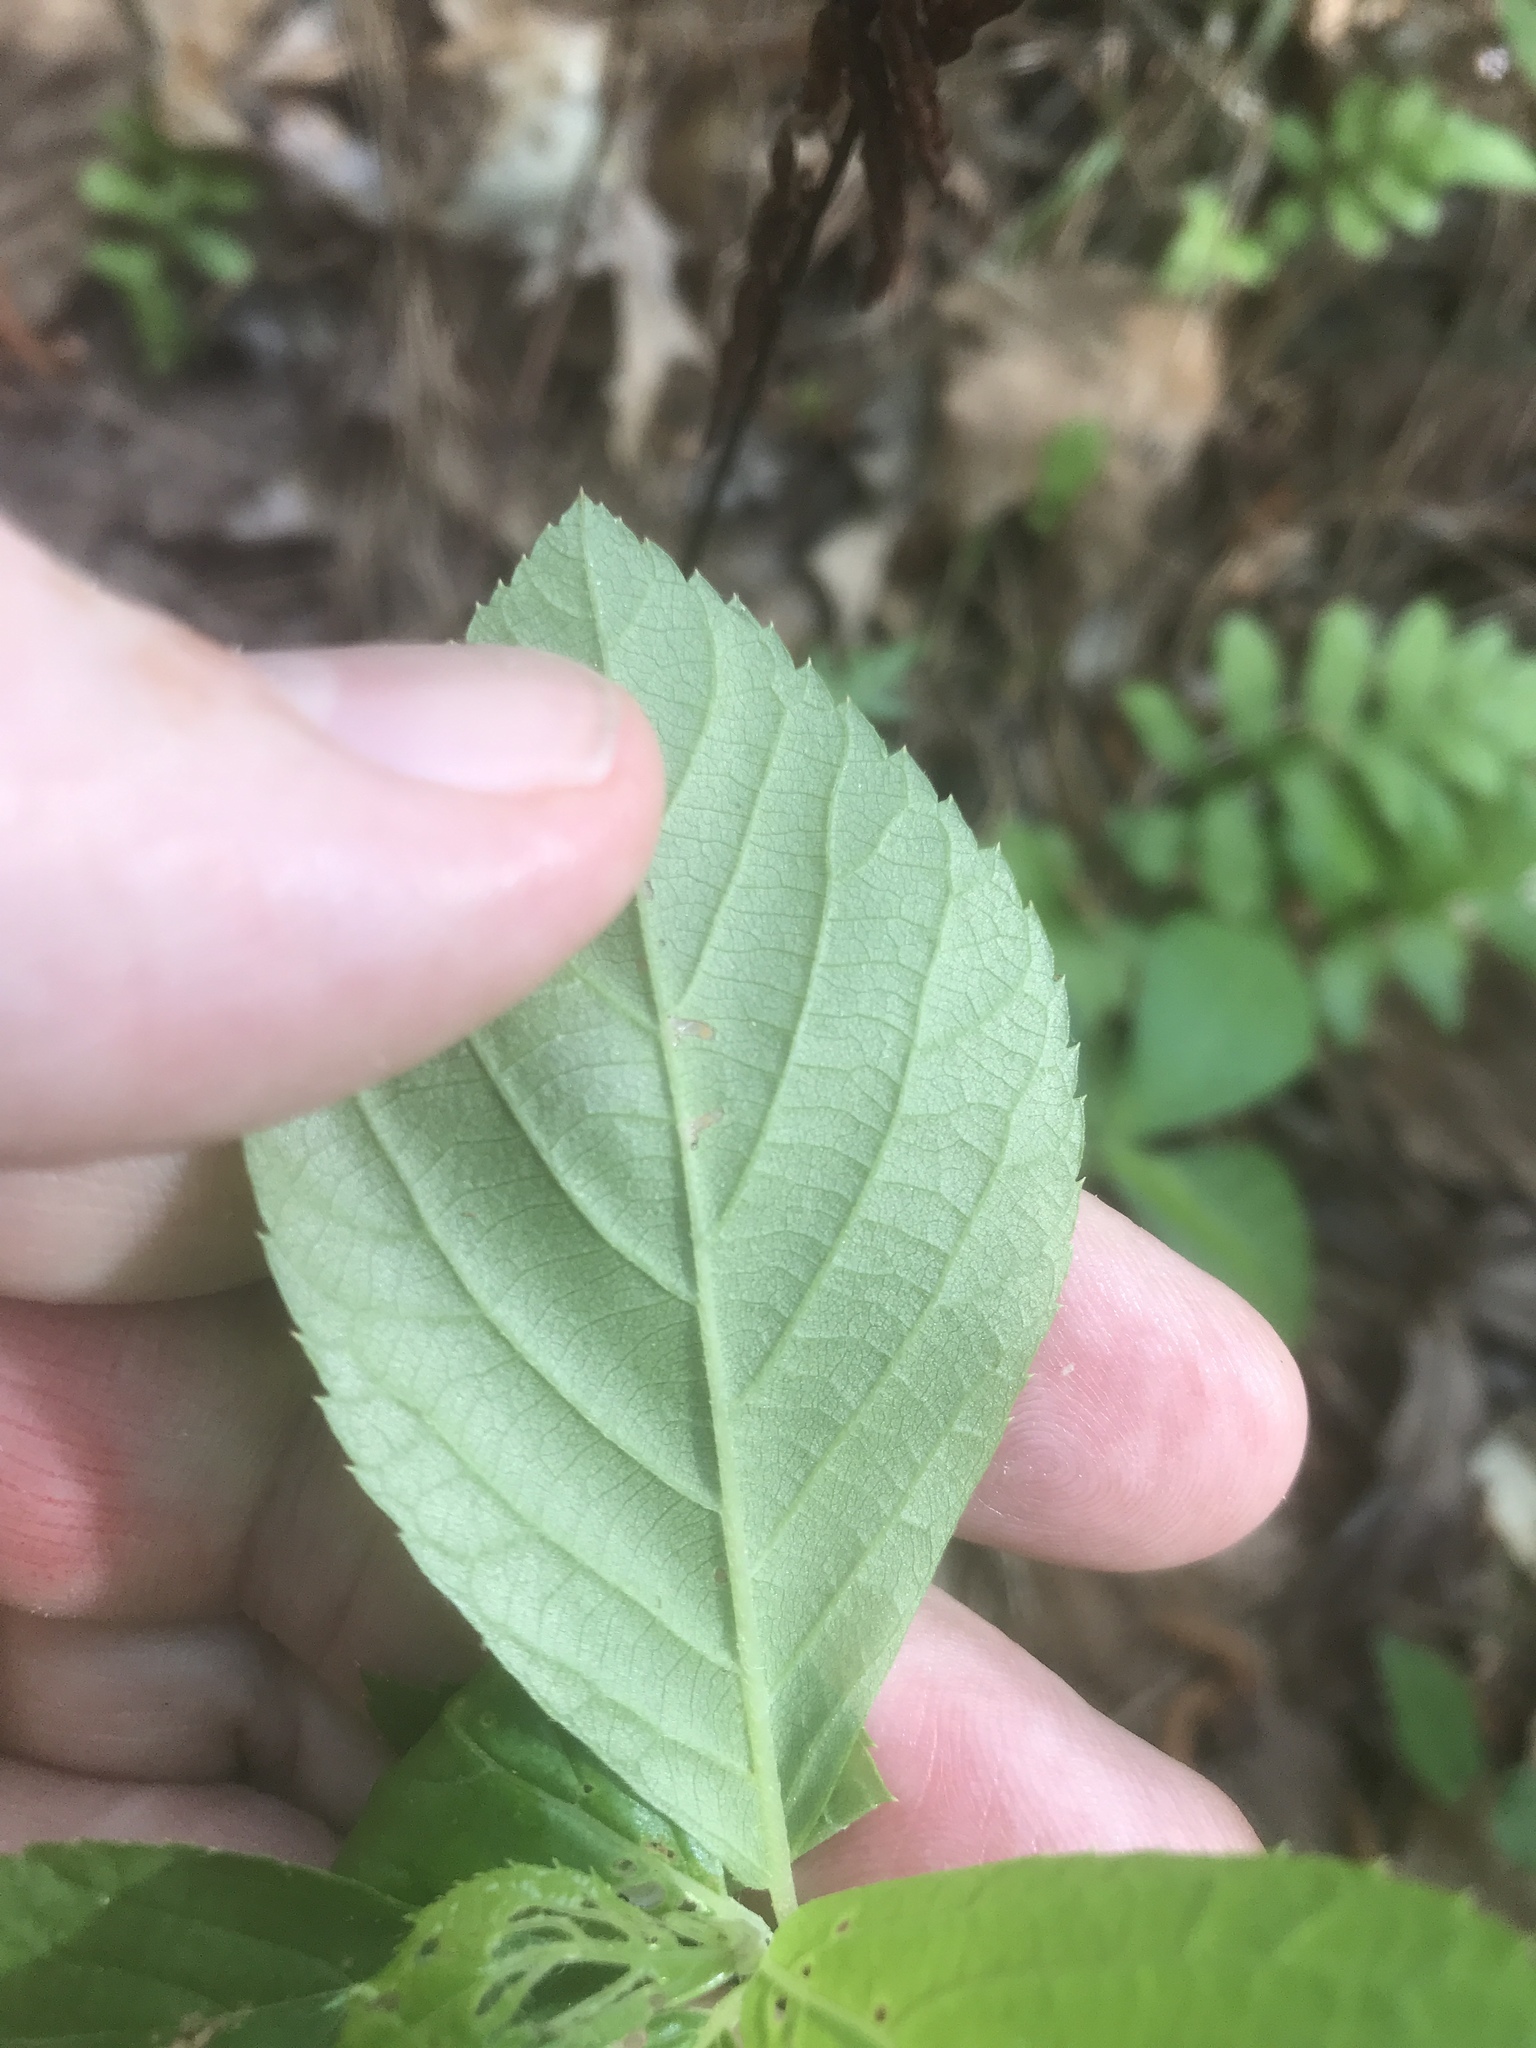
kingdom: Plantae
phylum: Tracheophyta
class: Magnoliopsida
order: Ericales
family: Clethraceae
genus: Clethra
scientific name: Clethra alnifolia
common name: Sweet pepperbush
